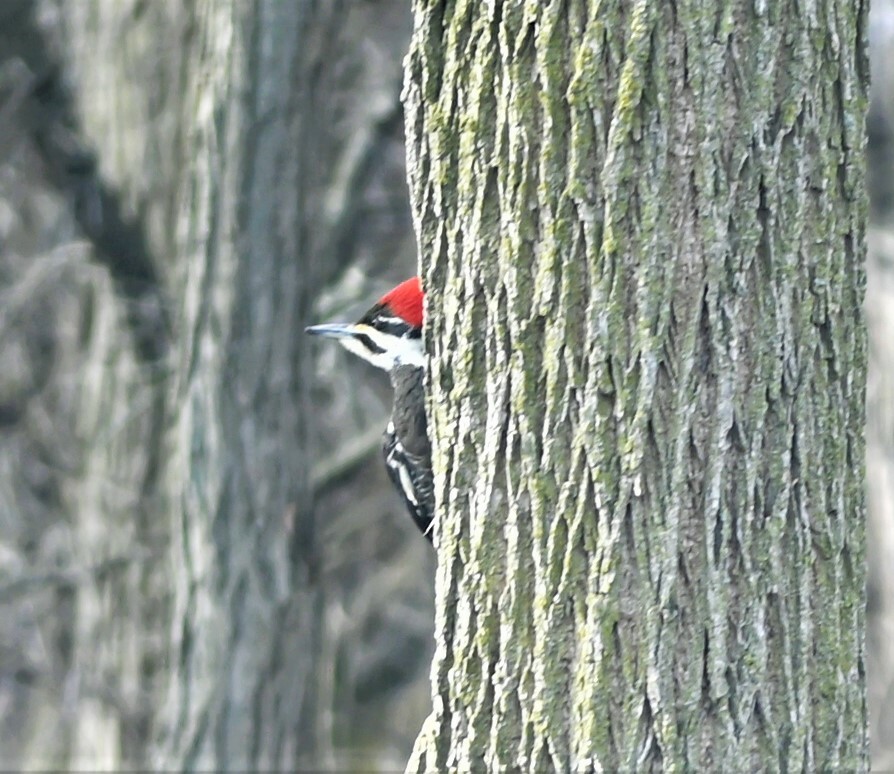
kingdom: Animalia
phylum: Chordata
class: Aves
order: Piciformes
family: Picidae
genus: Dryocopus
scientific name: Dryocopus pileatus
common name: Pileated woodpecker
